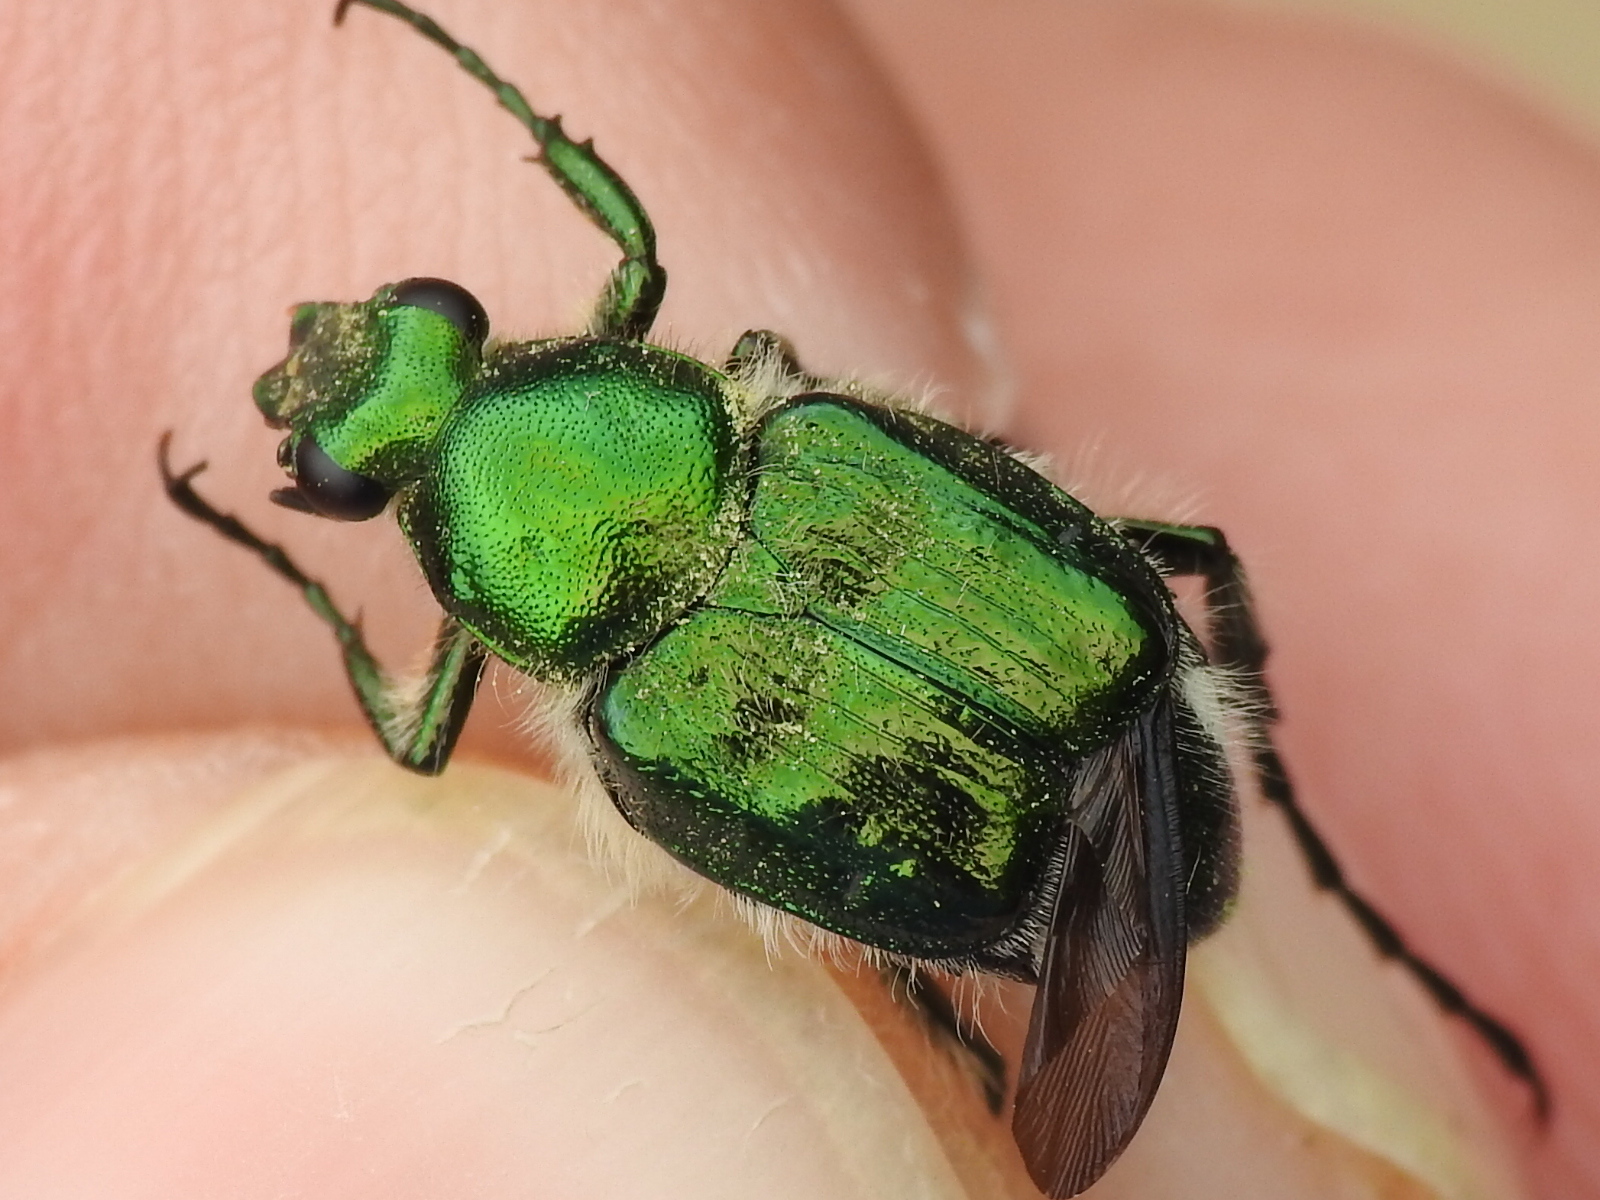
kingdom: Animalia
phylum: Arthropoda
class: Insecta
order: Coleoptera
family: Scarabaeidae
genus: Trichiotinus
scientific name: Trichiotinus lunulatus
